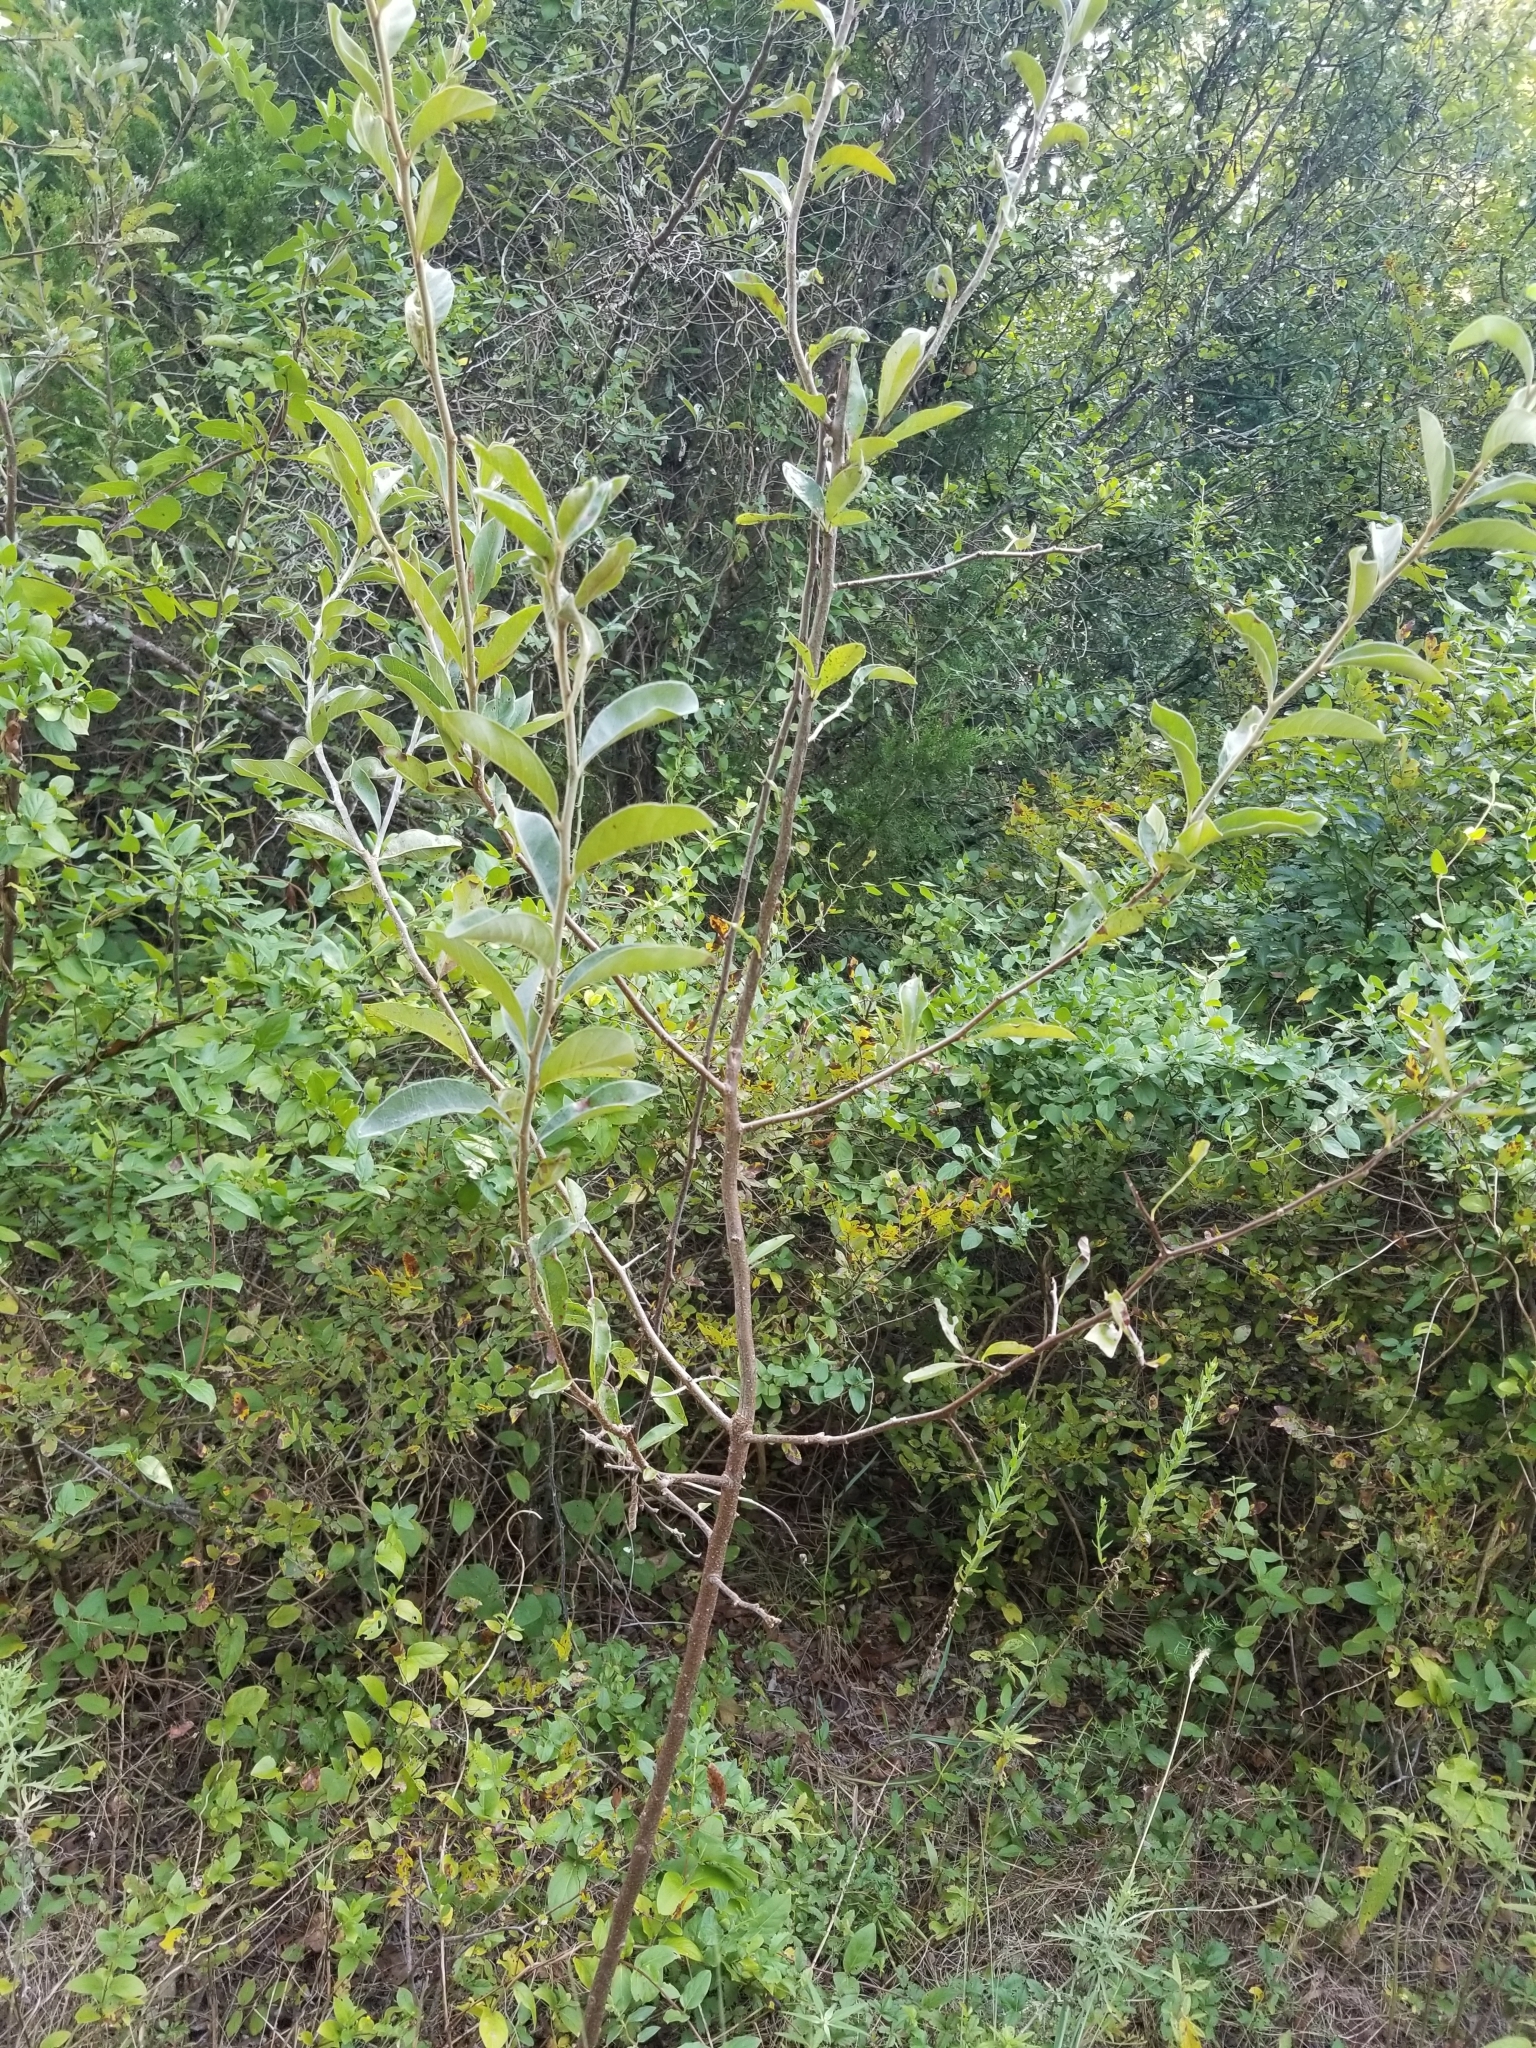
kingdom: Plantae
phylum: Tracheophyta
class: Magnoliopsida
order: Ericales
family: Sapotaceae
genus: Sideroxylon
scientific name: Sideroxylon lanuginosum
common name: Chittamwood
